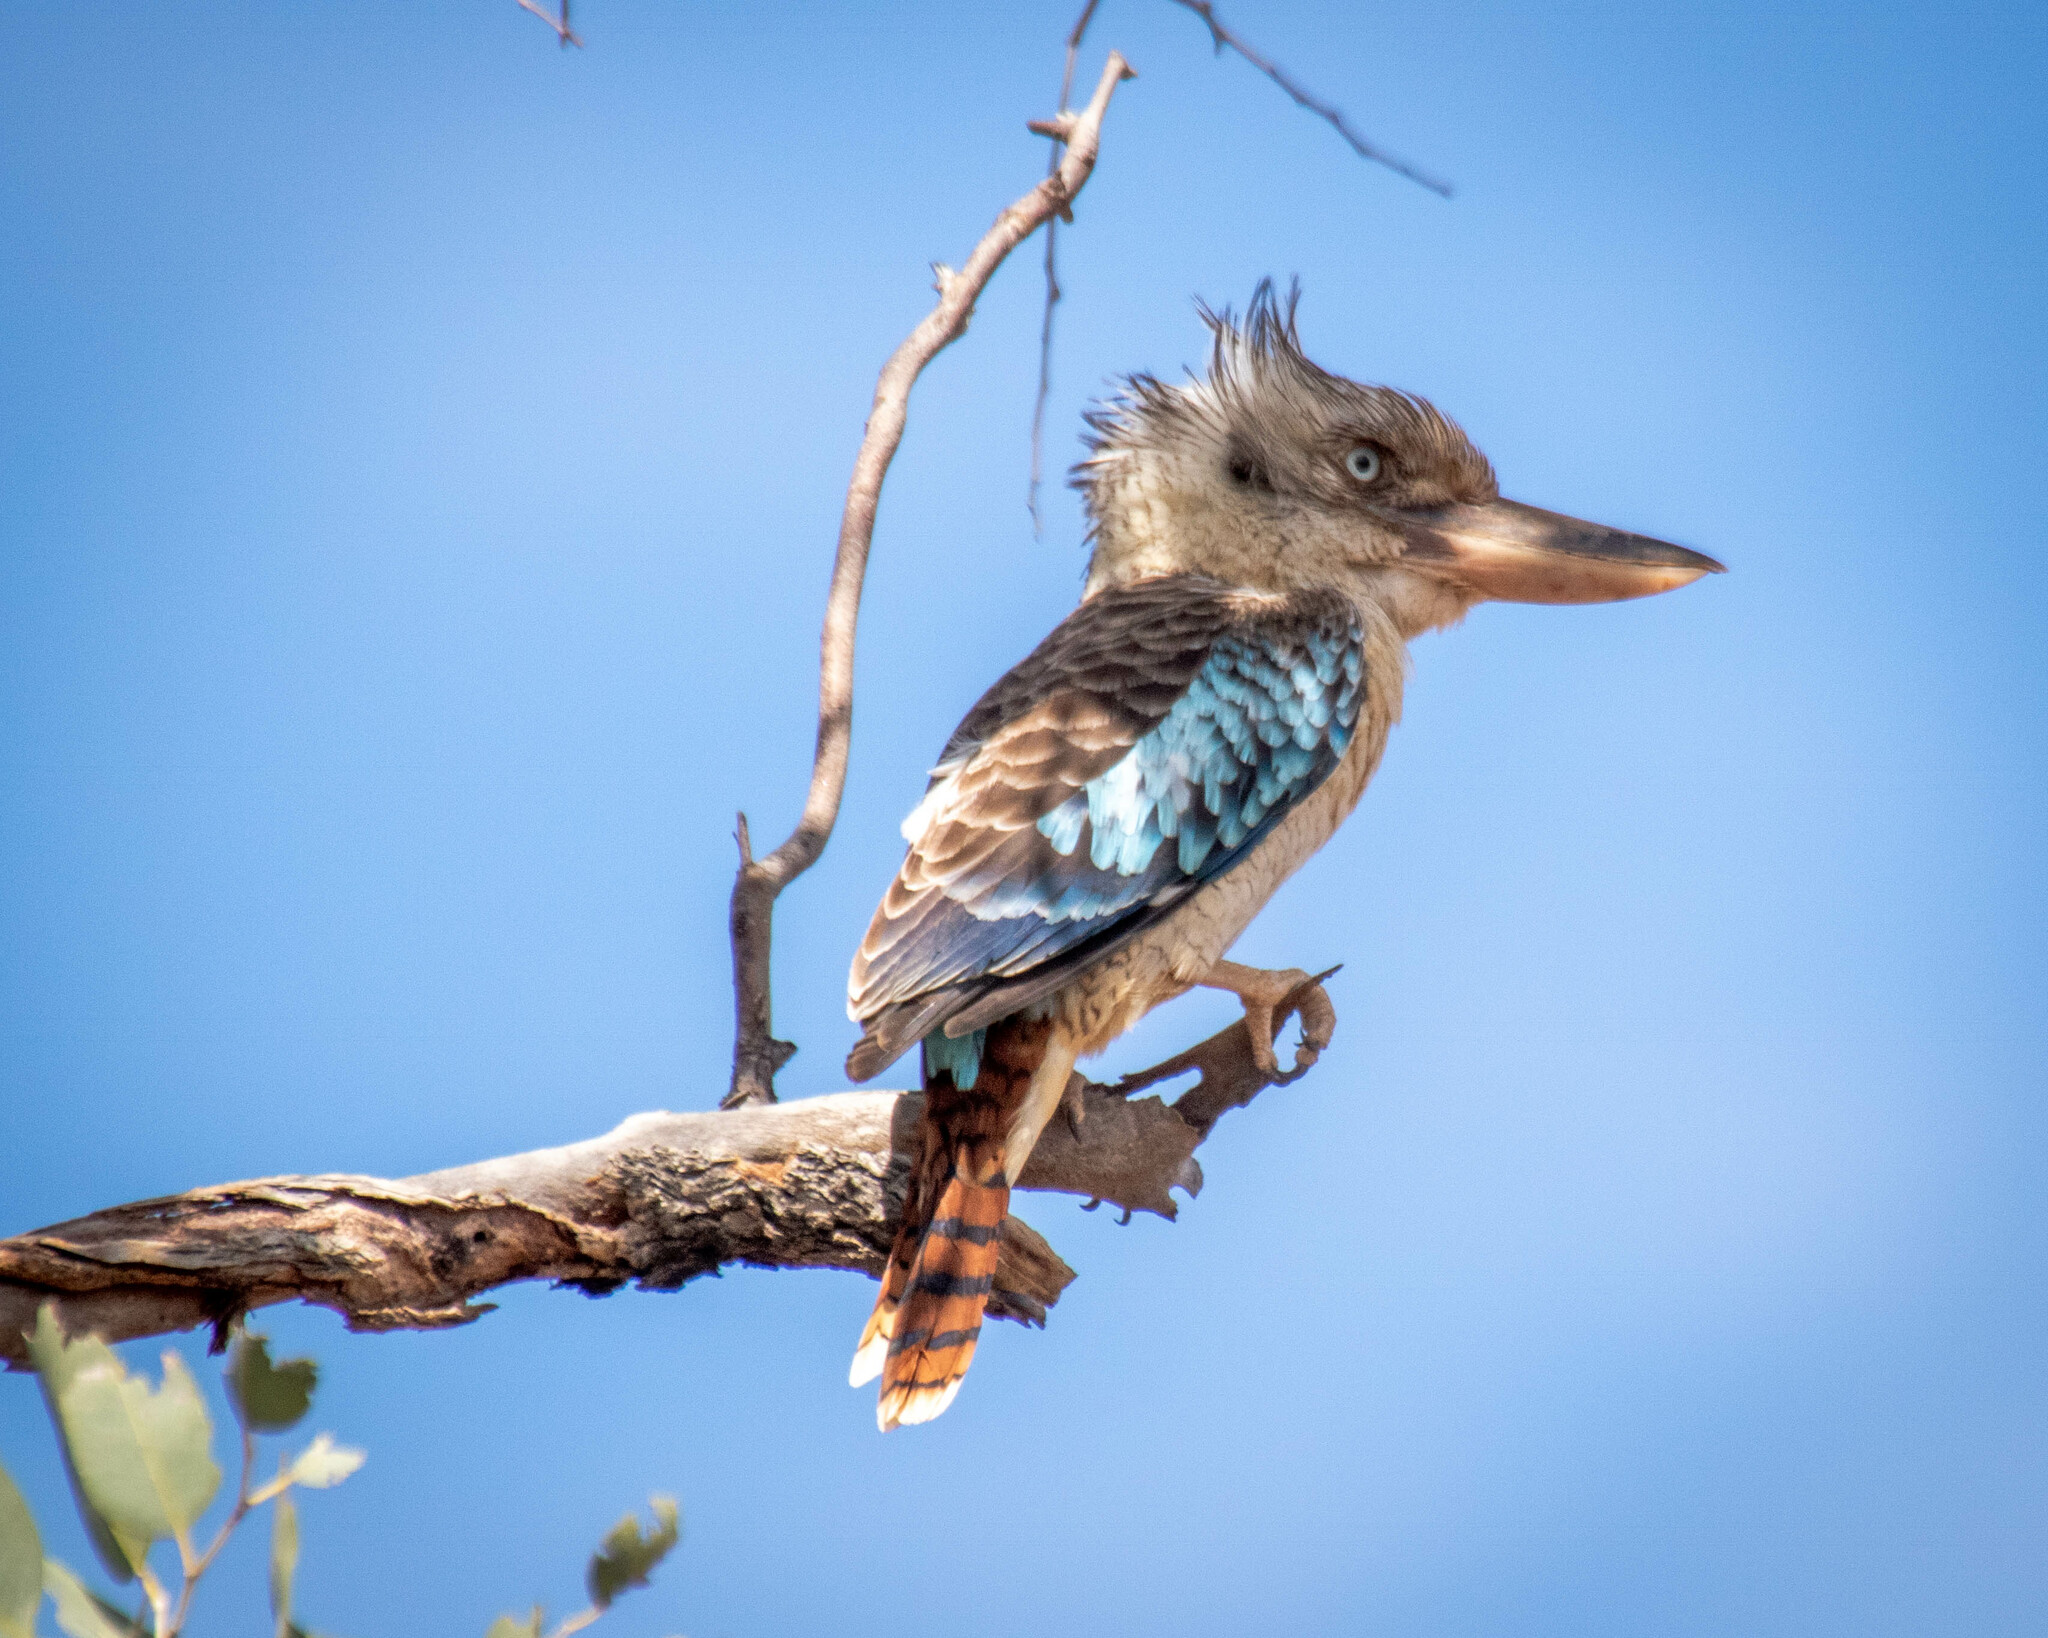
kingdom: Animalia
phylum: Chordata
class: Aves
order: Coraciiformes
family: Alcedinidae
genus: Dacelo
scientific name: Dacelo leachii
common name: Blue-winged kookaburra
